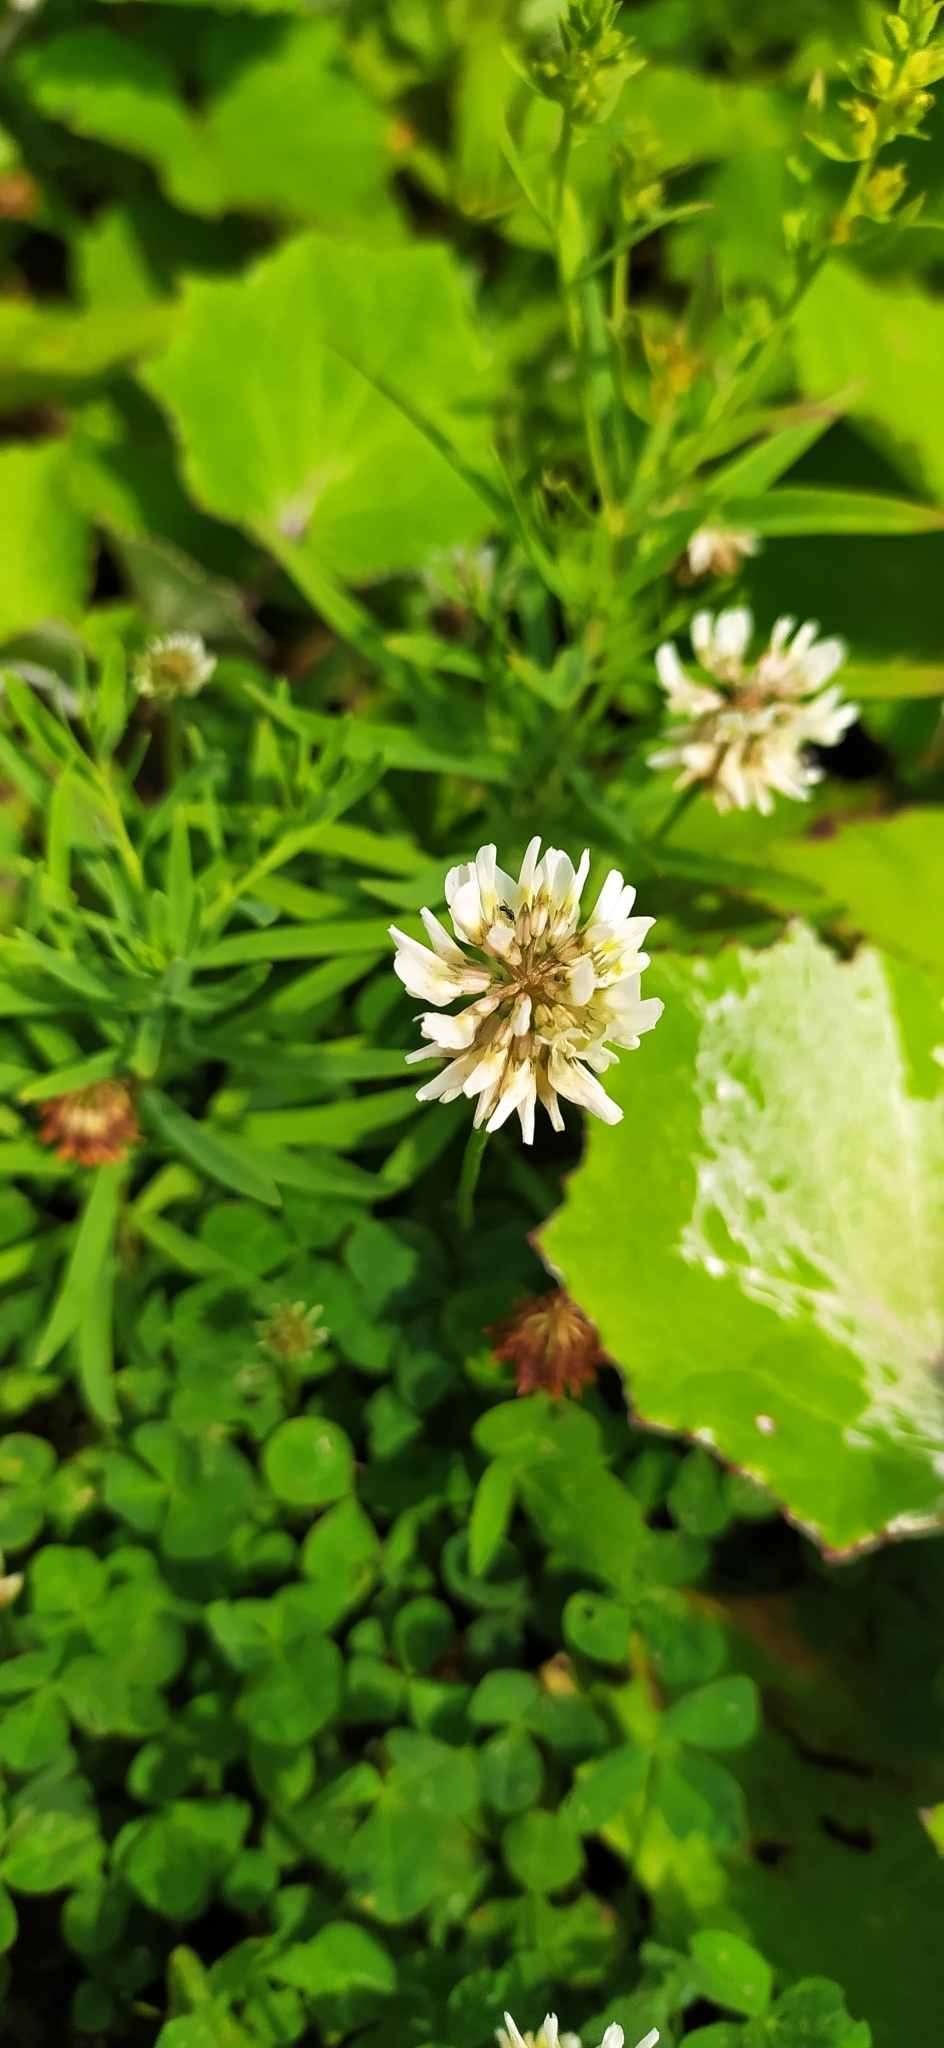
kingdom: Plantae
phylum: Tracheophyta
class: Magnoliopsida
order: Fabales
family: Fabaceae
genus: Trifolium
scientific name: Trifolium repens
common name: White clover
